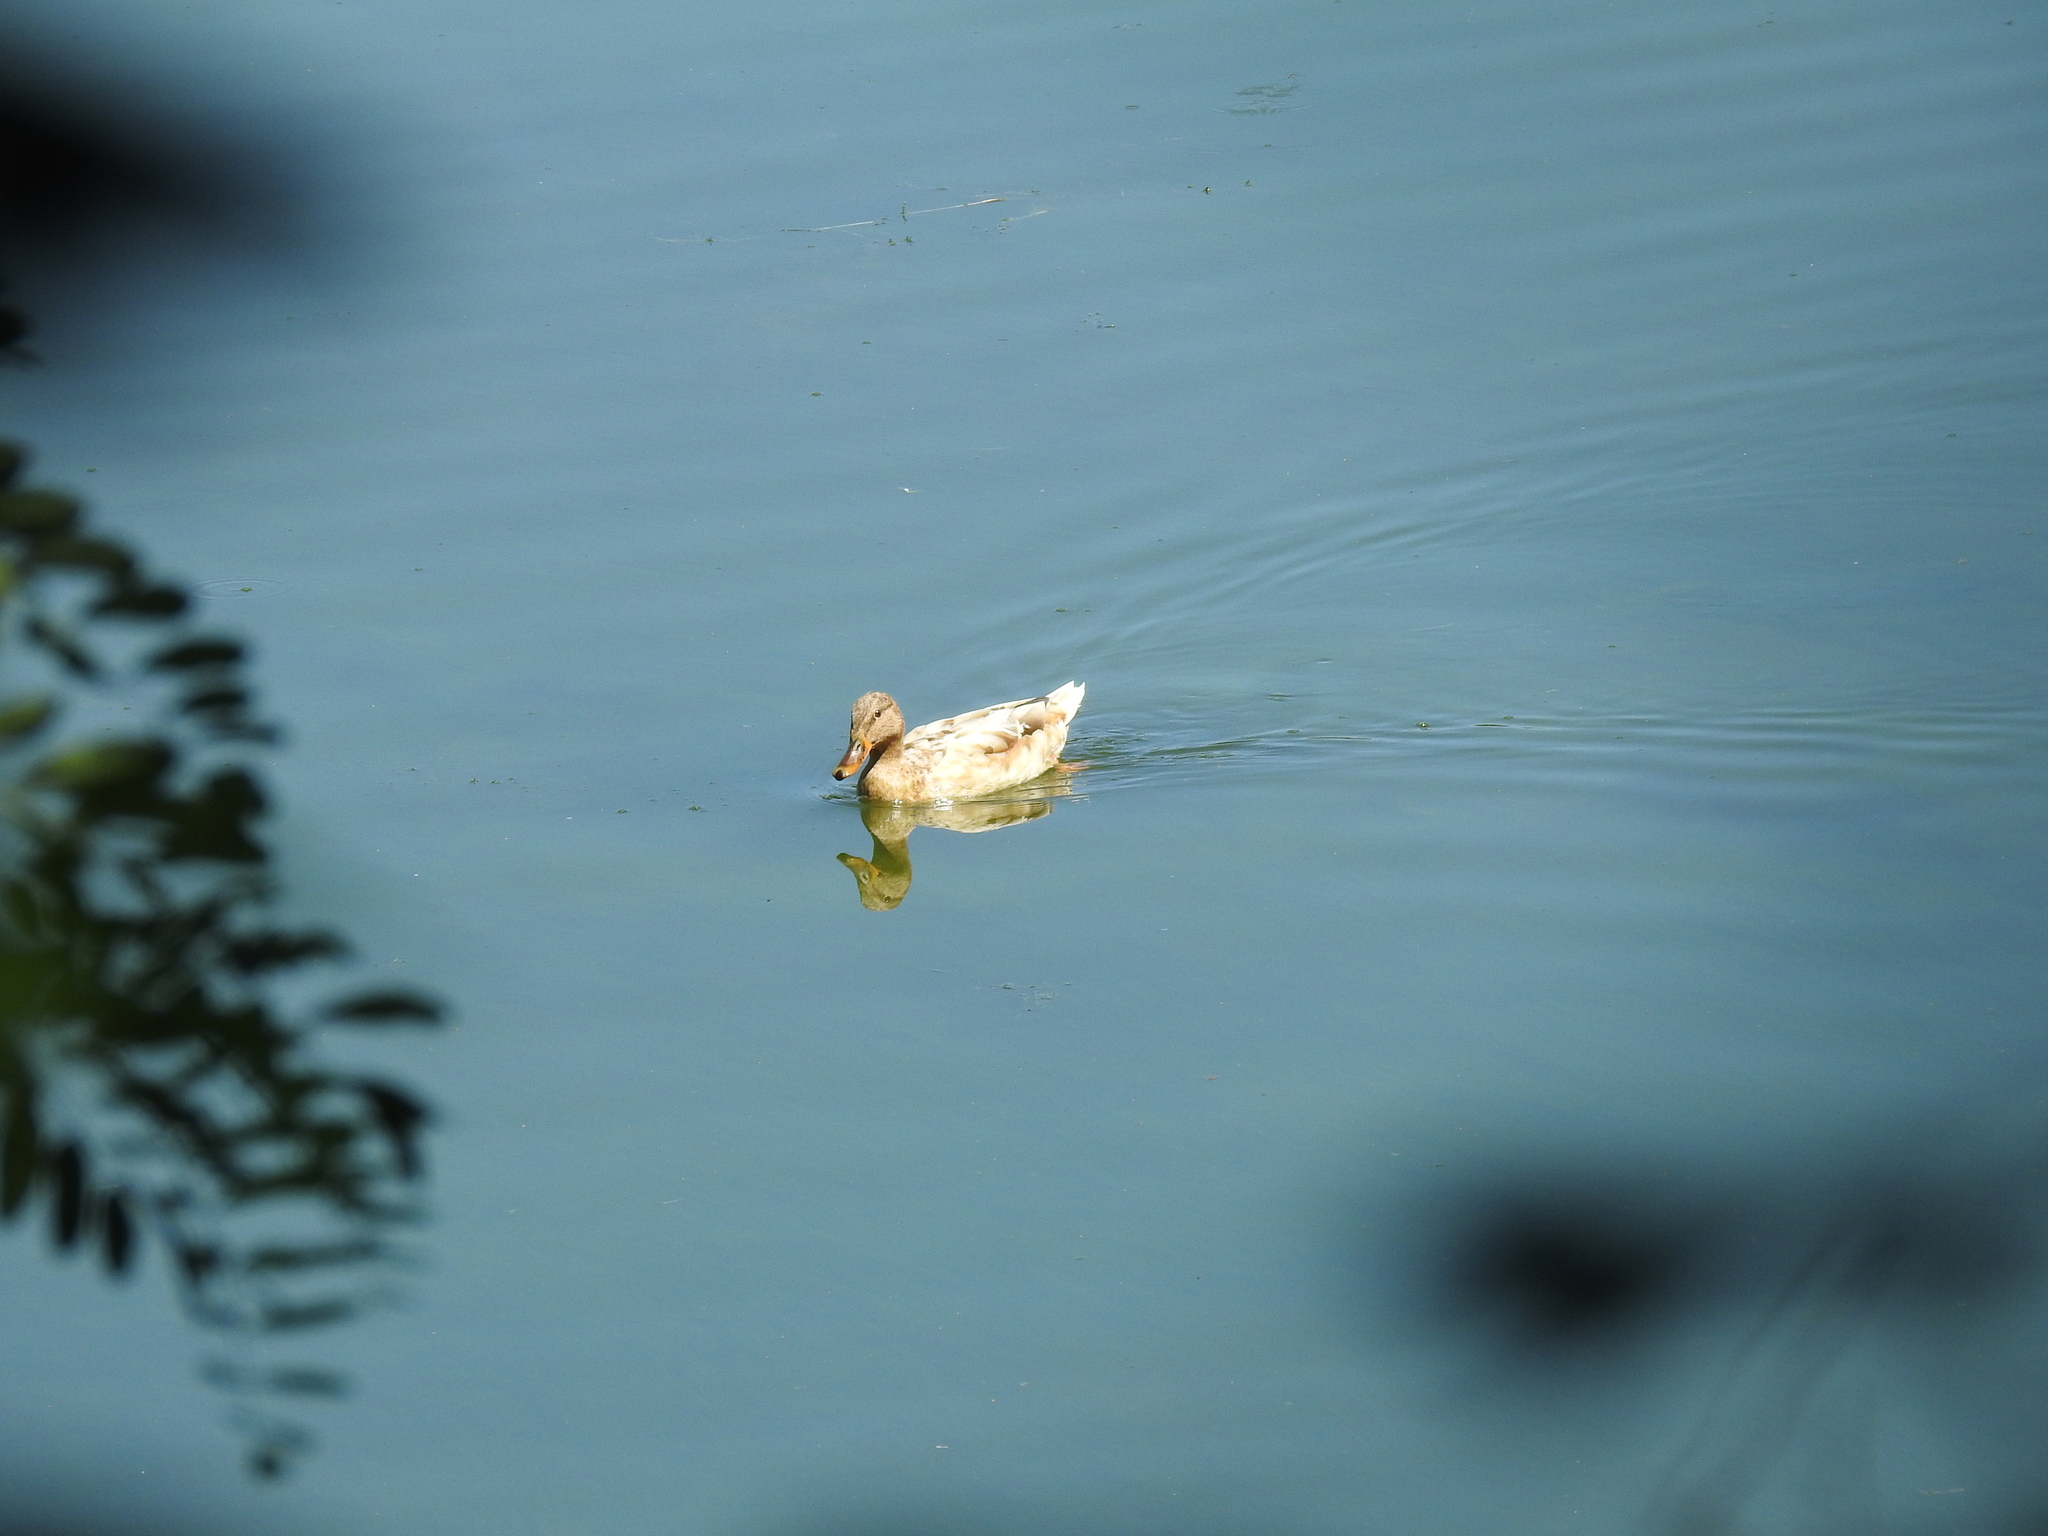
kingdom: Animalia
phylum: Chordata
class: Aves
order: Anseriformes
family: Anatidae
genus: Anas
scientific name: Anas platyrhynchos
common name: Mallard
